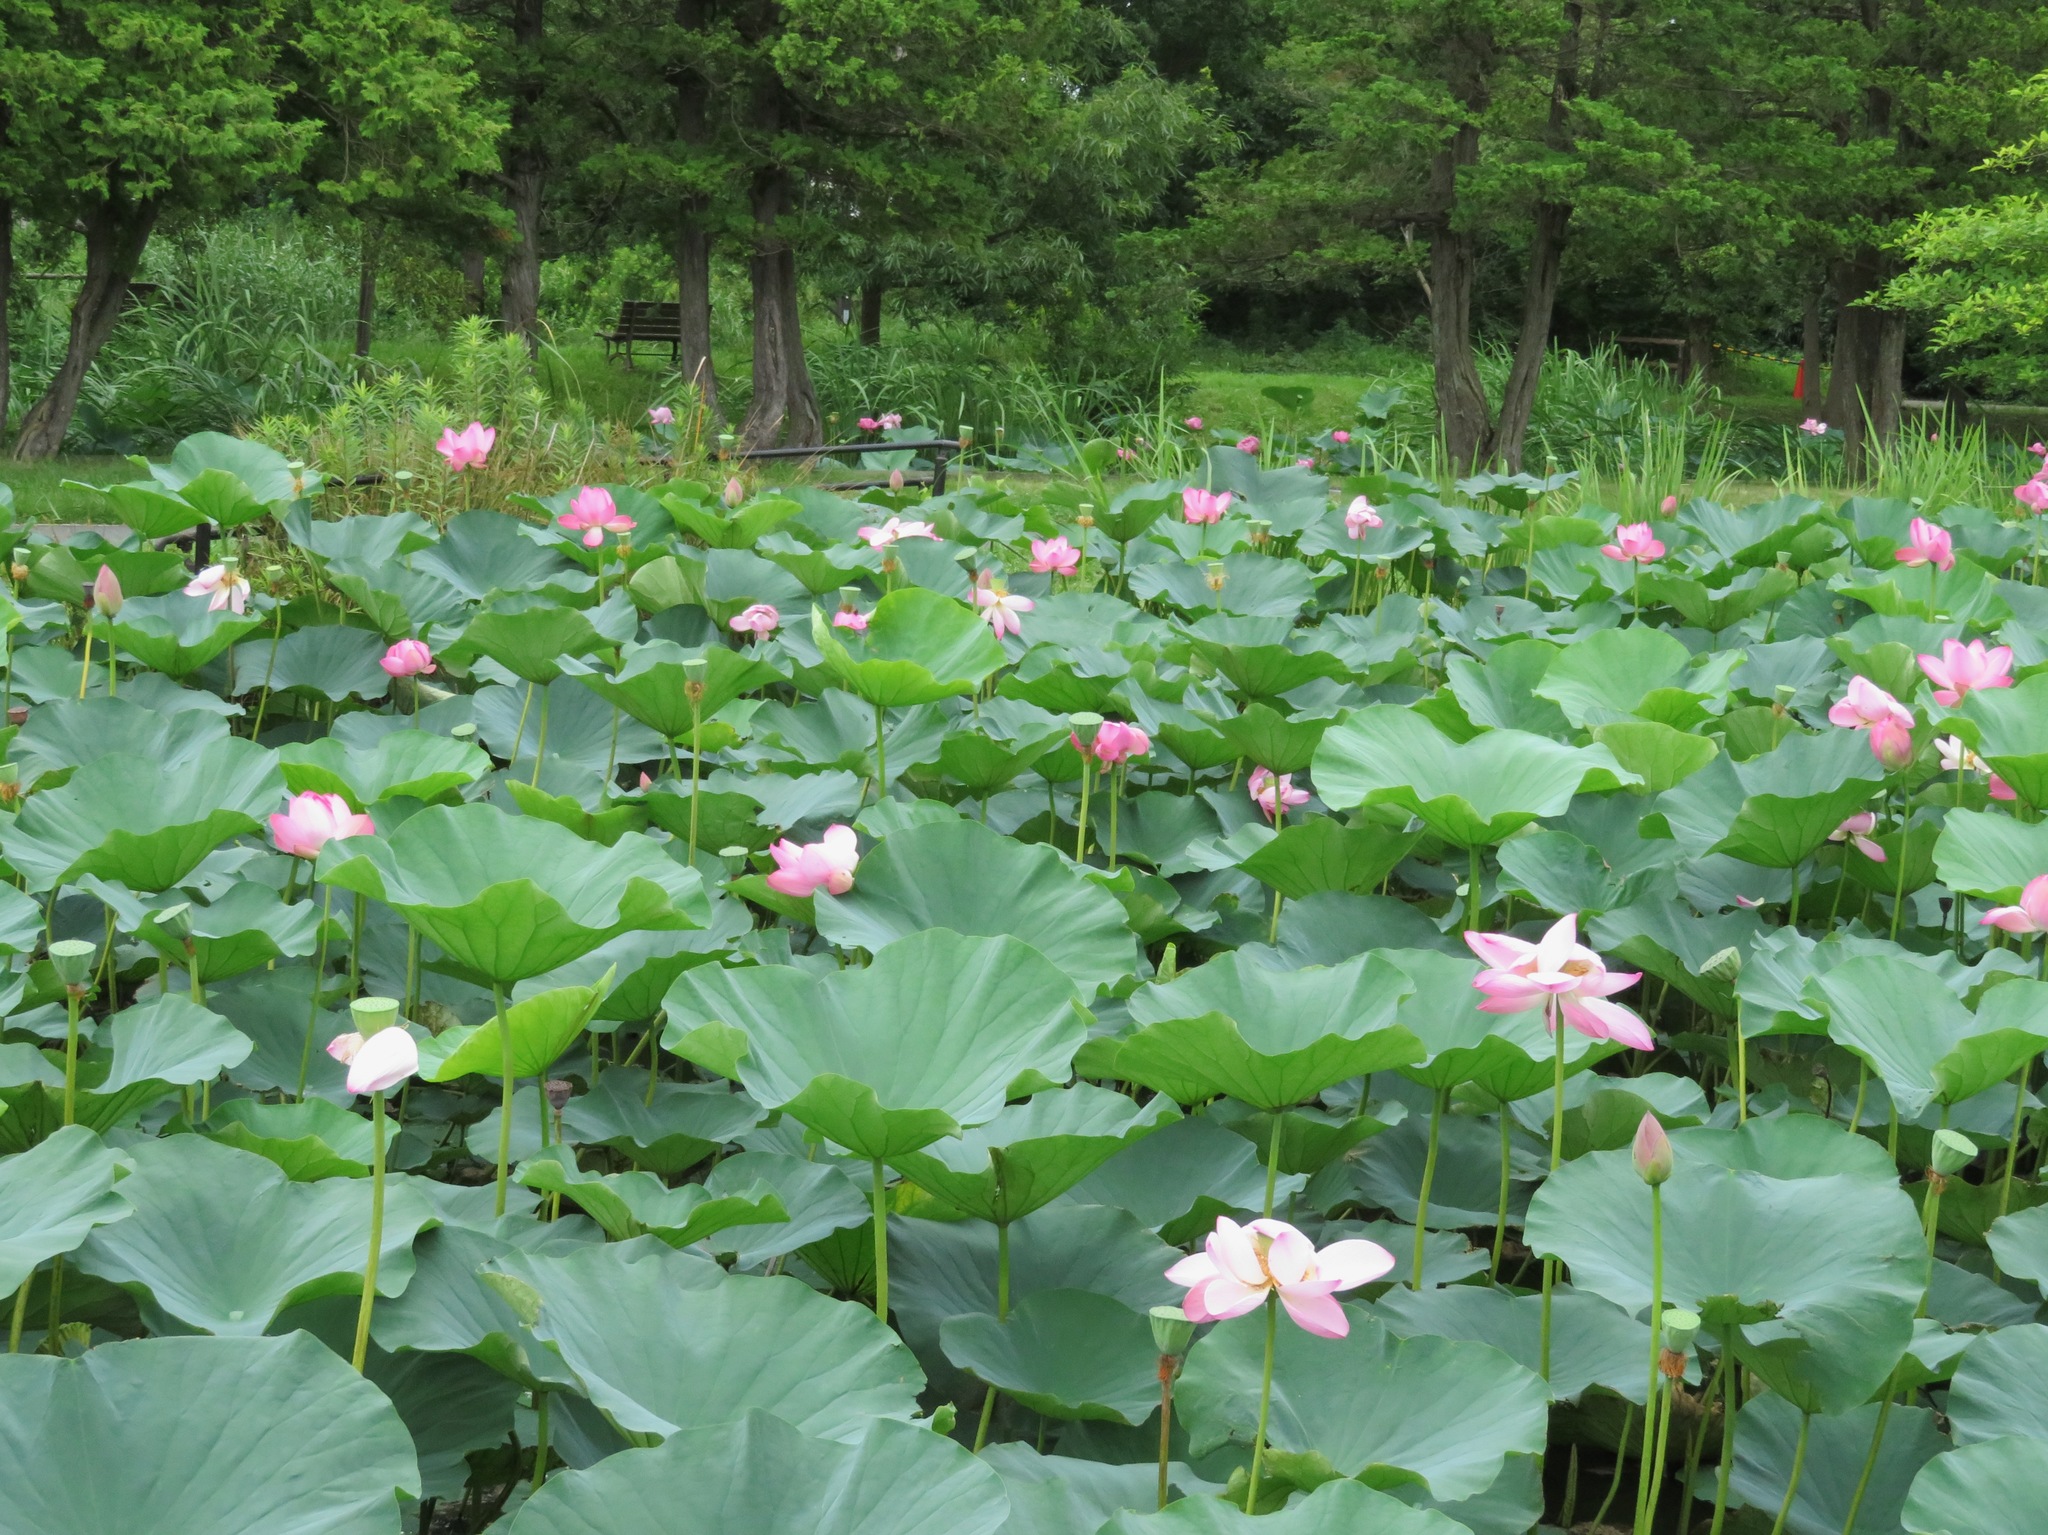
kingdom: Plantae
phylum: Tracheophyta
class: Magnoliopsida
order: Proteales
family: Nelumbonaceae
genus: Nelumbo
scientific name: Nelumbo nucifera
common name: Sacred lotus
